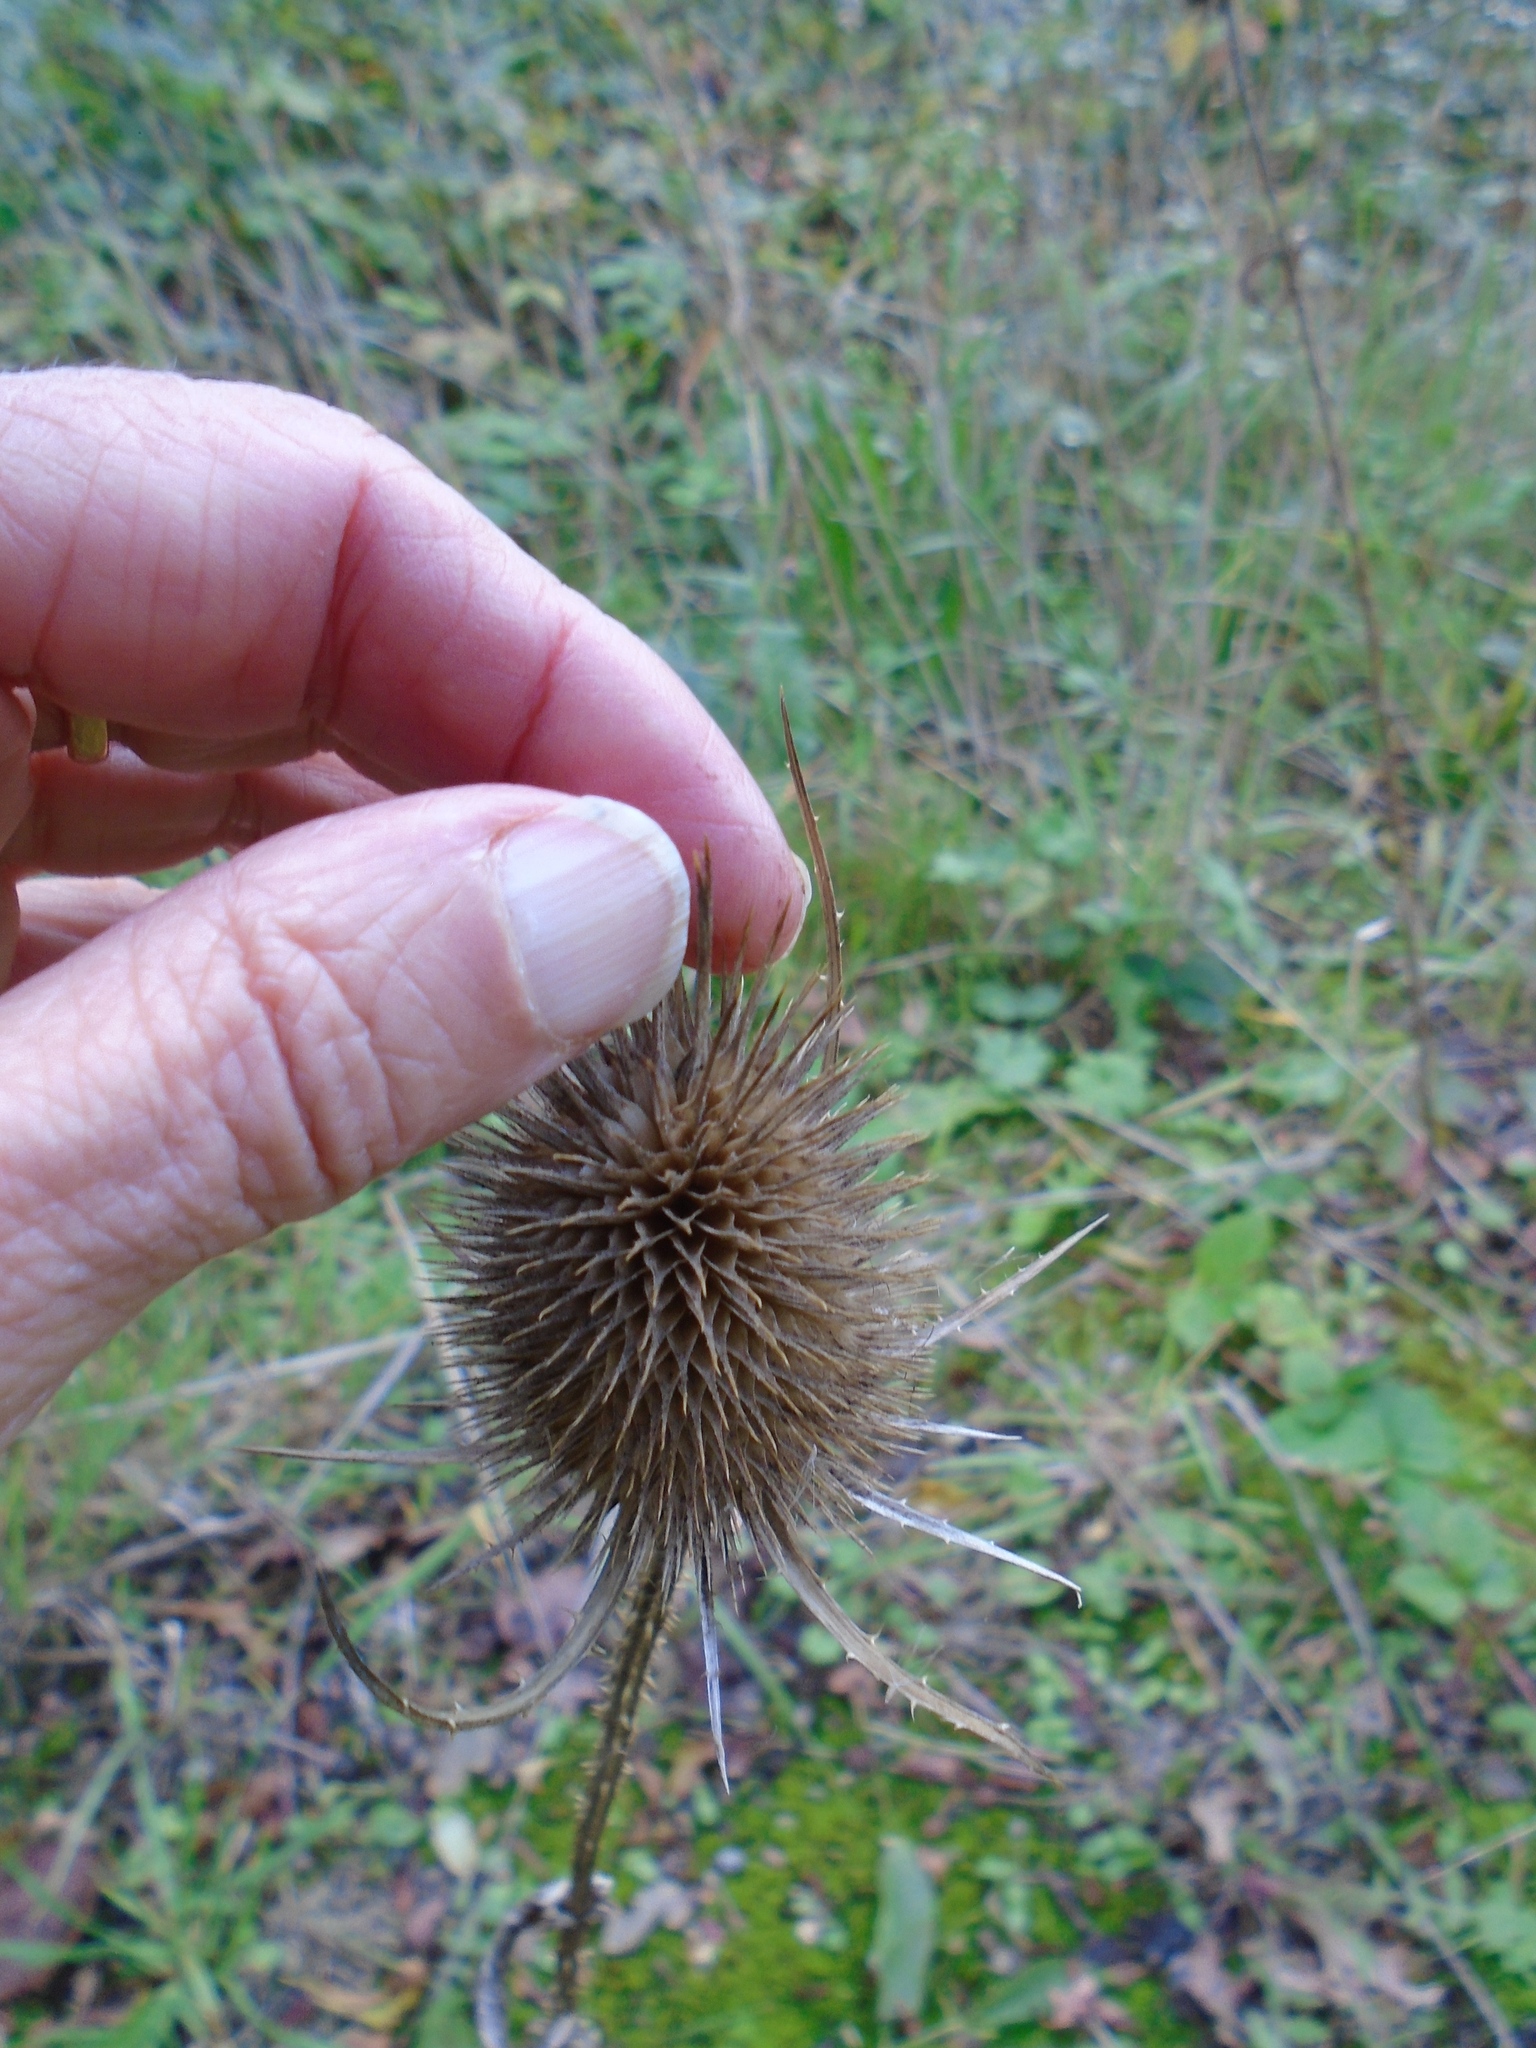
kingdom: Plantae
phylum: Tracheophyta
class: Magnoliopsida
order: Dipsacales
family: Caprifoliaceae
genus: Dipsacus
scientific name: Dipsacus fullonum
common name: Teasel
